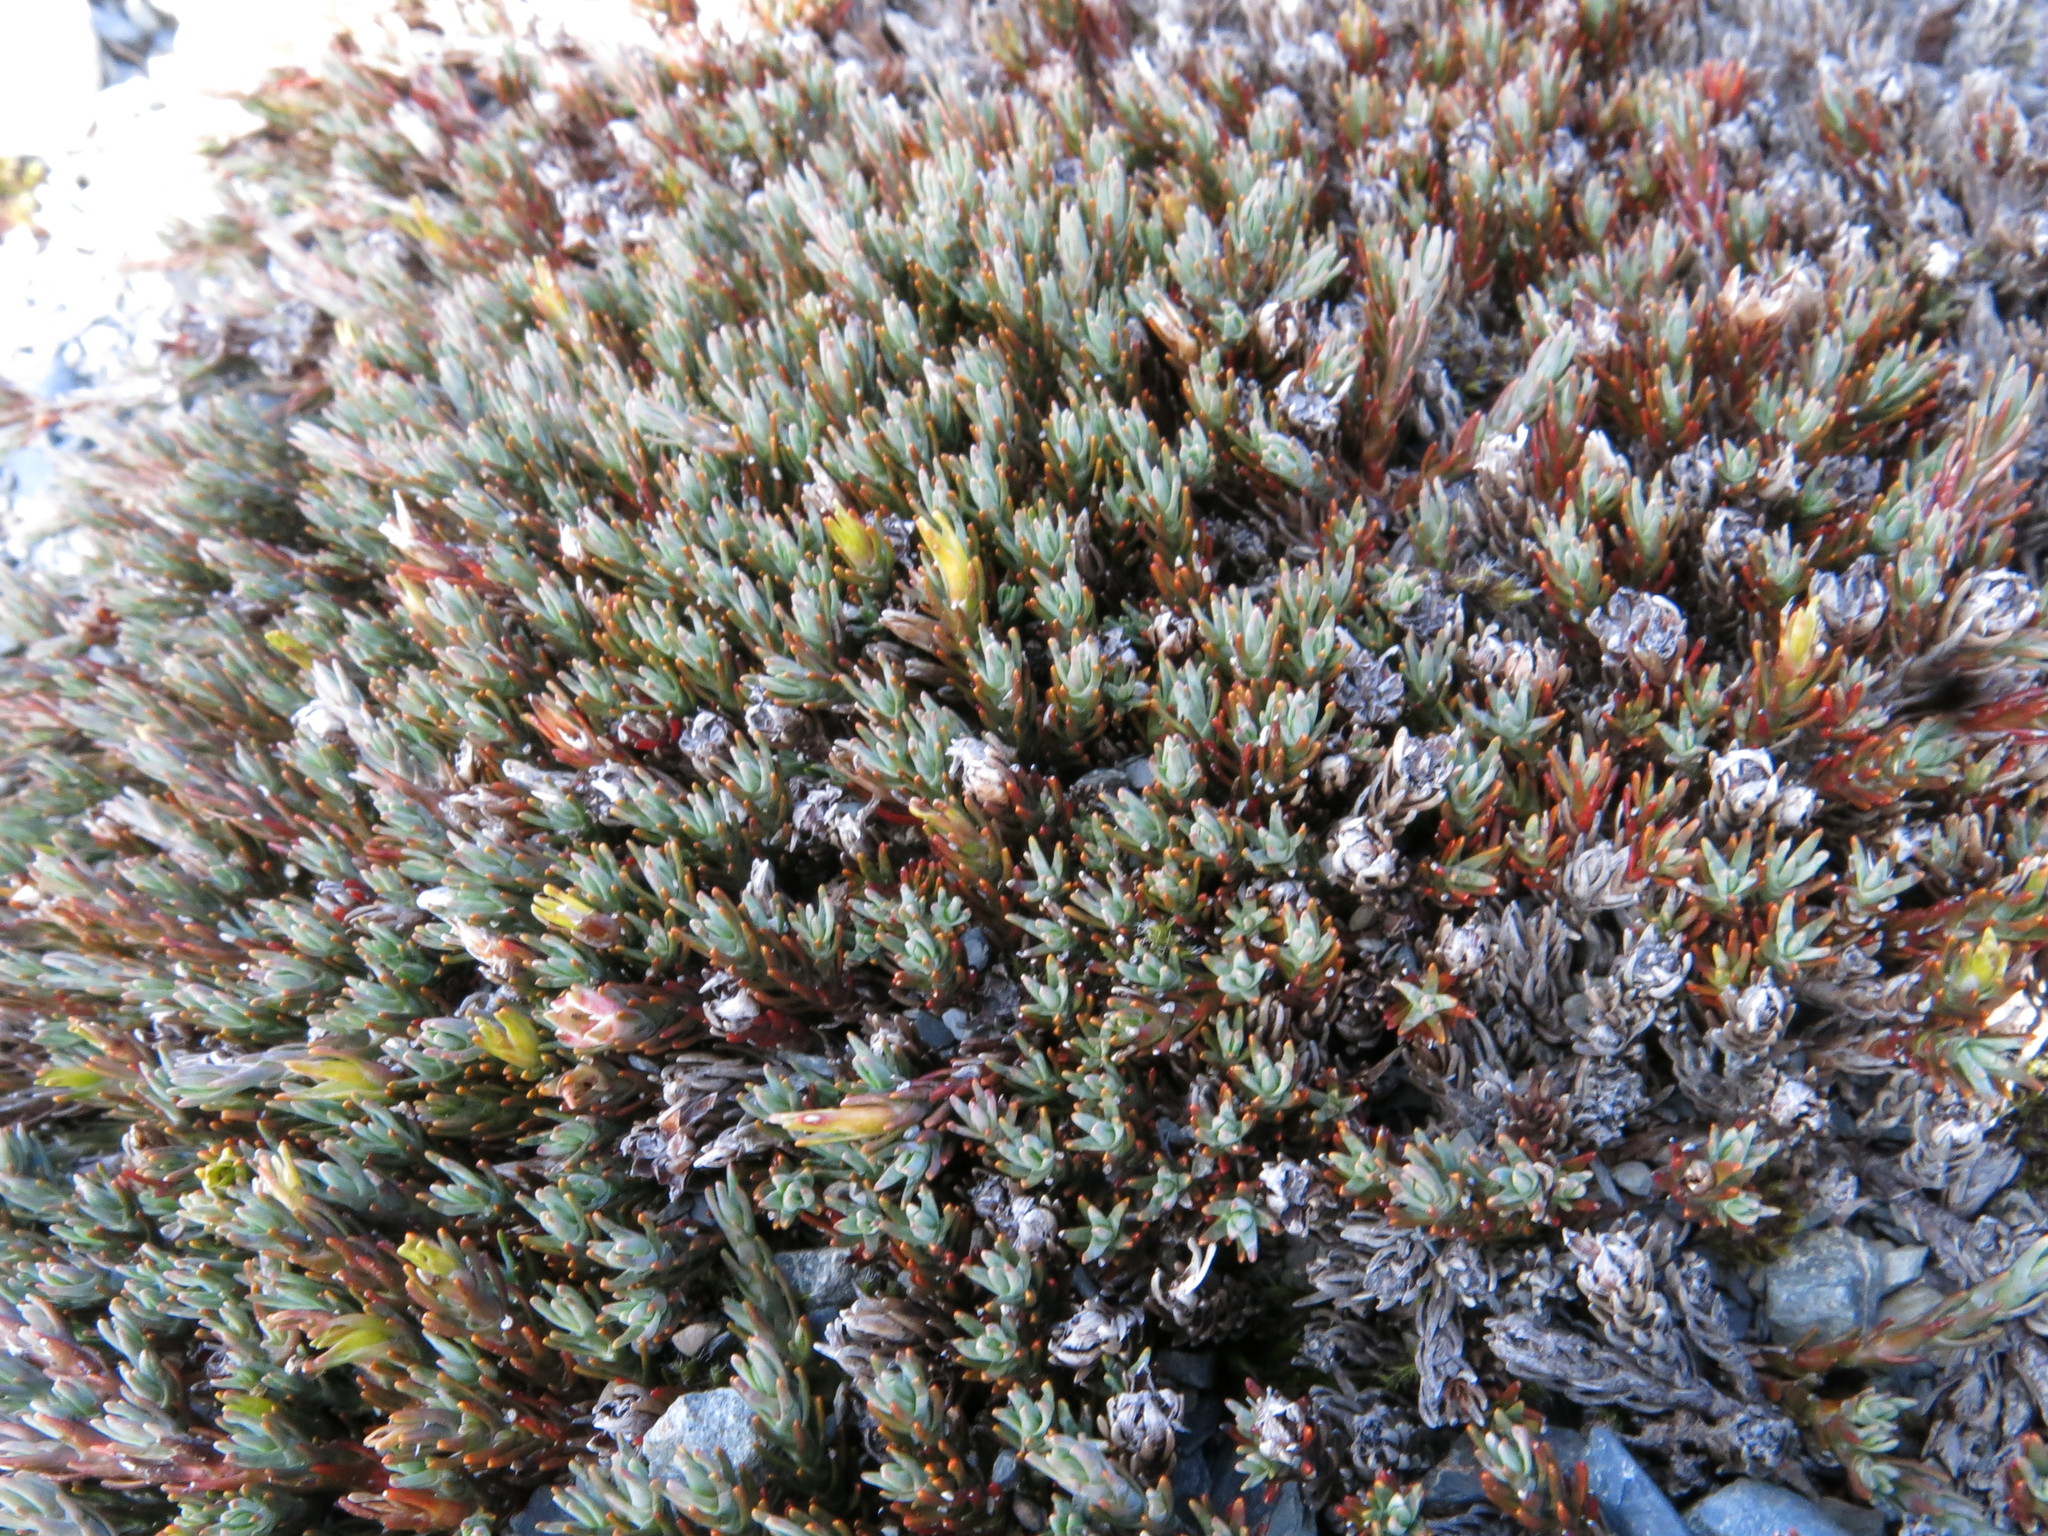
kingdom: Plantae
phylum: Tracheophyta
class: Magnoliopsida
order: Ericales
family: Ericaceae
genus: Dracophyllum
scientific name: Dracophyllum prostratum
